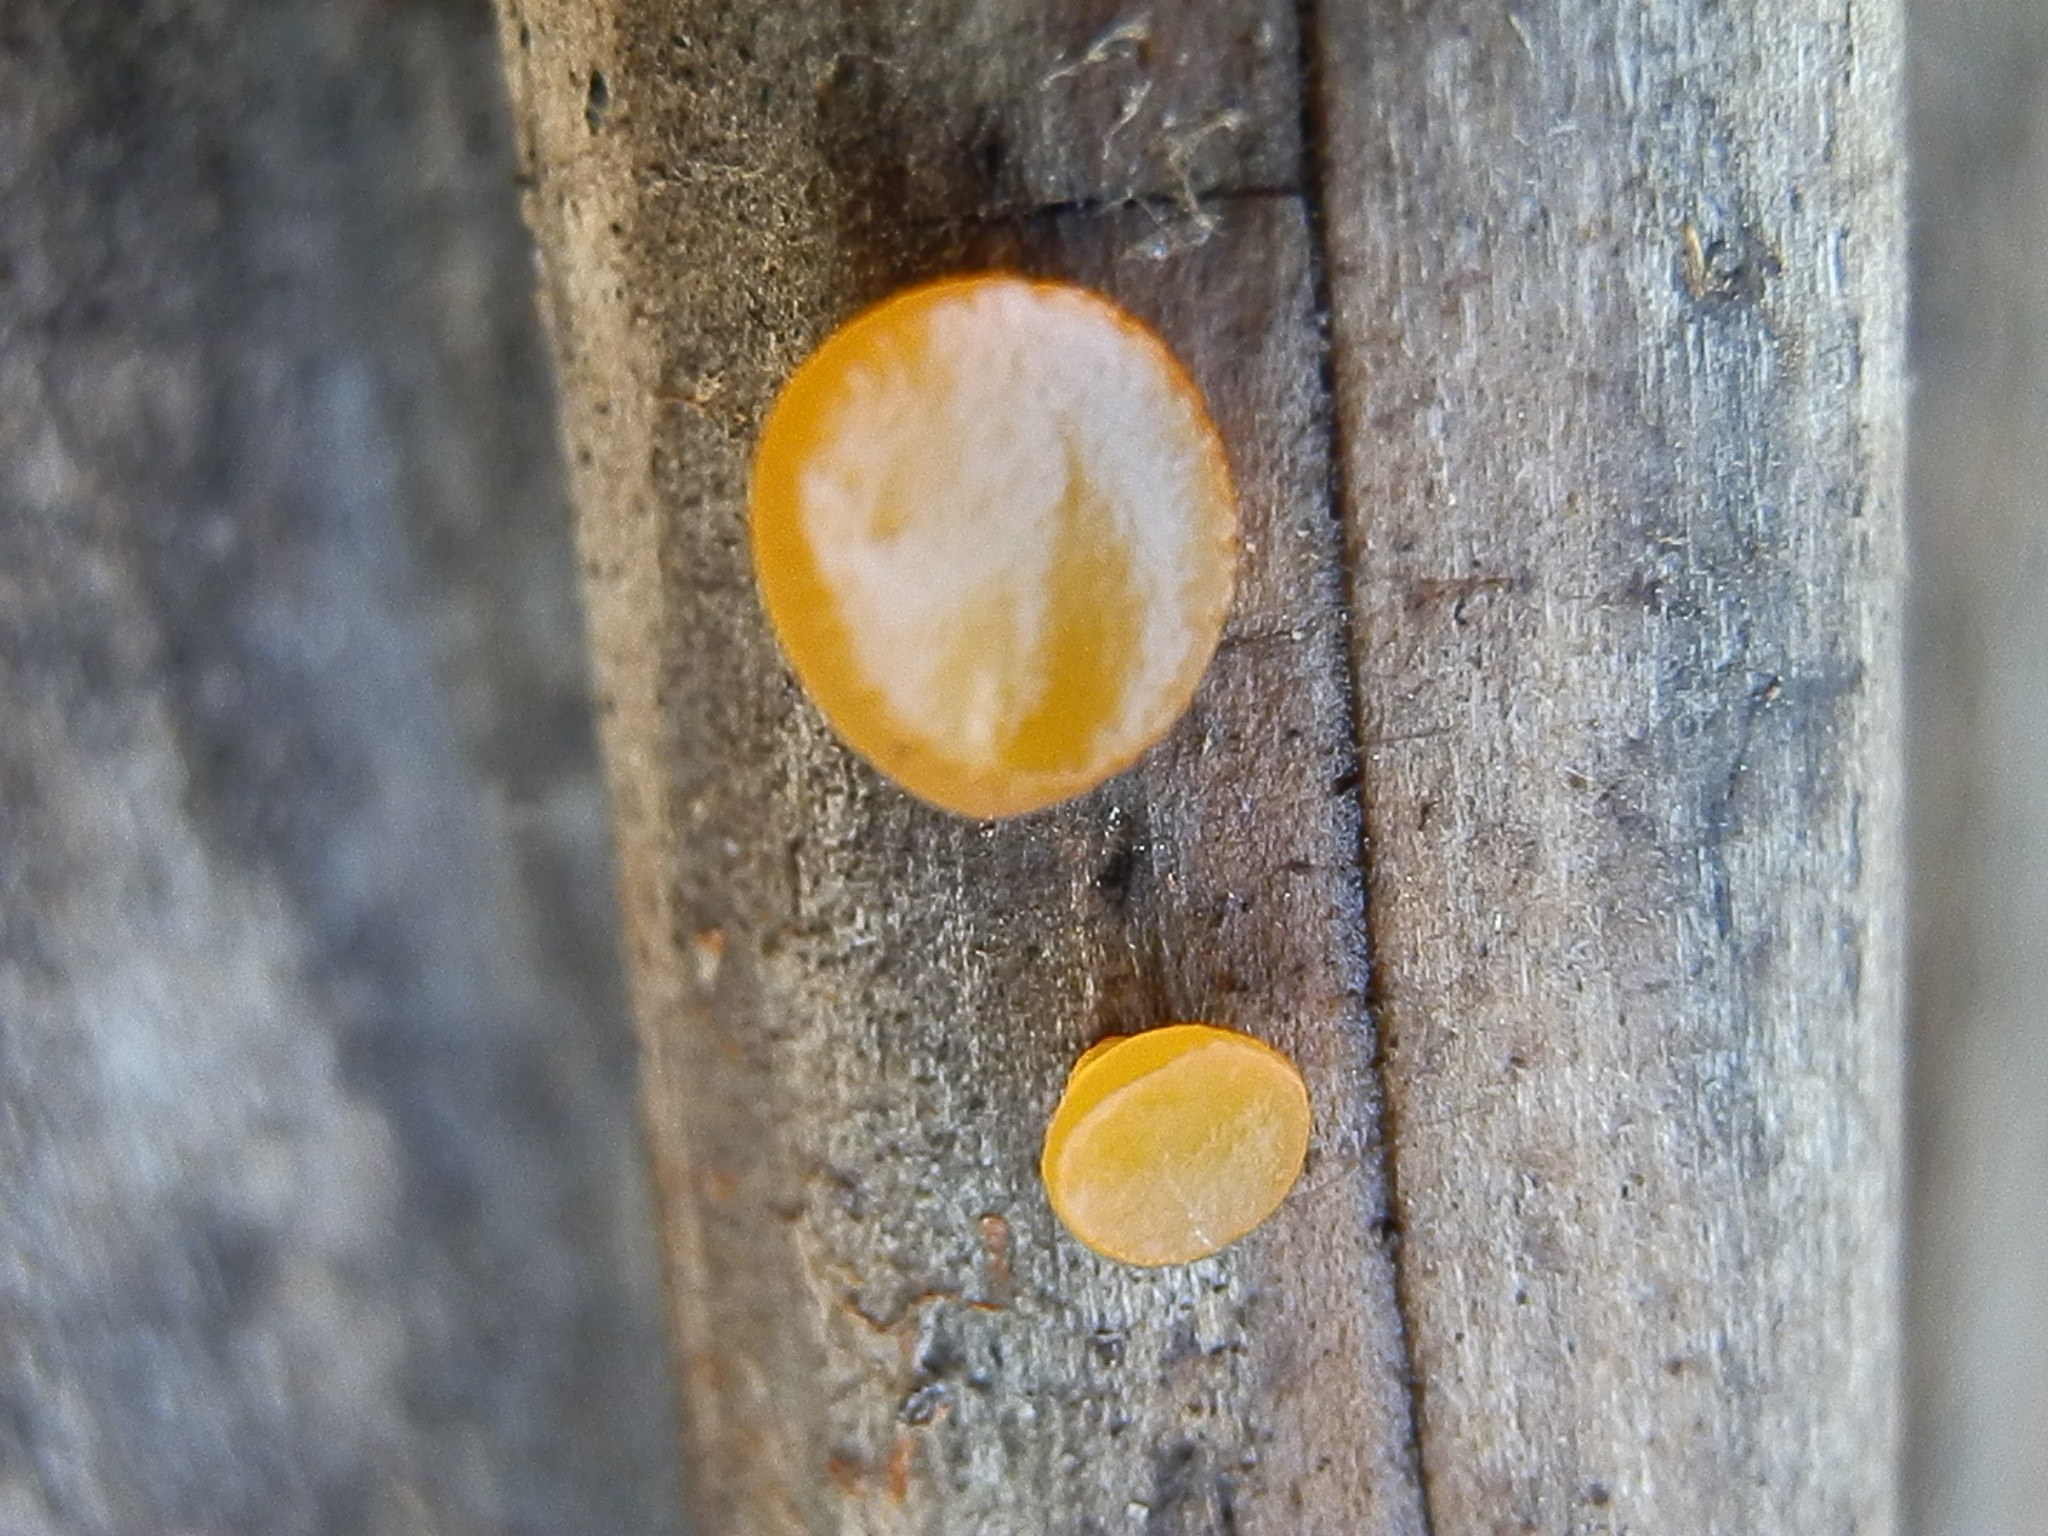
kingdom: Fungi
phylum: Basidiomycota
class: Dacrymycetes
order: Dacrymycetales
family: Dacrymycetaceae
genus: Dacrymyces
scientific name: Dacrymyces minutus
